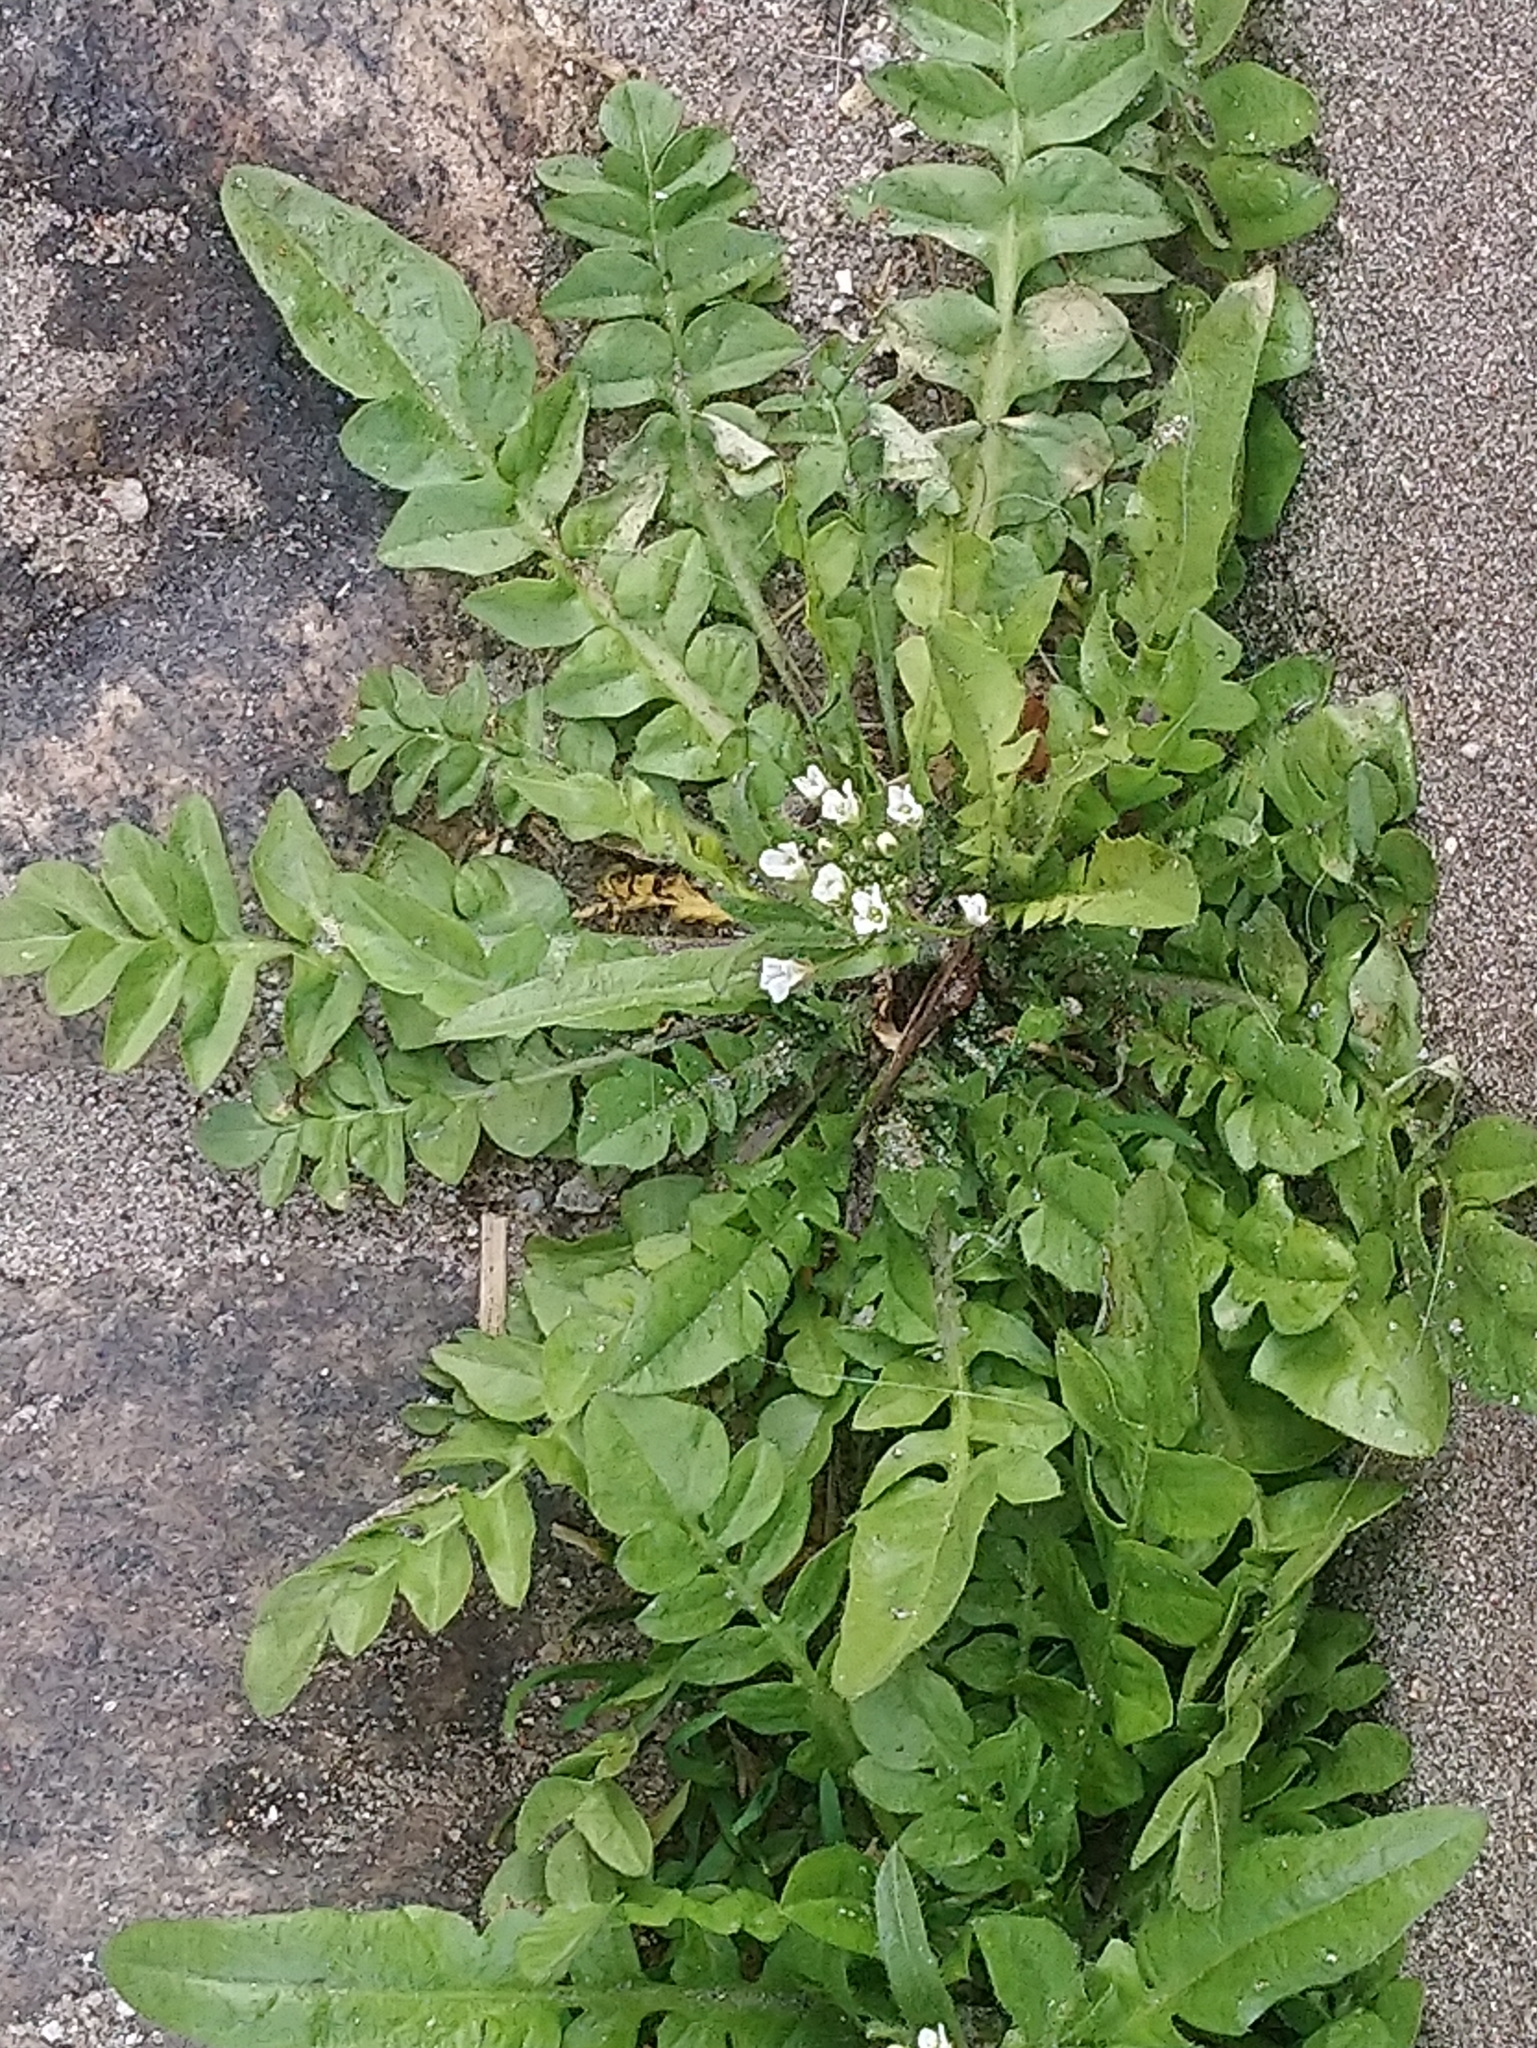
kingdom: Plantae
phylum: Tracheophyta
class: Magnoliopsida
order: Brassicales
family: Brassicaceae
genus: Capsella
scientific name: Capsella bursa-pastoris
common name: Shepherd's purse
